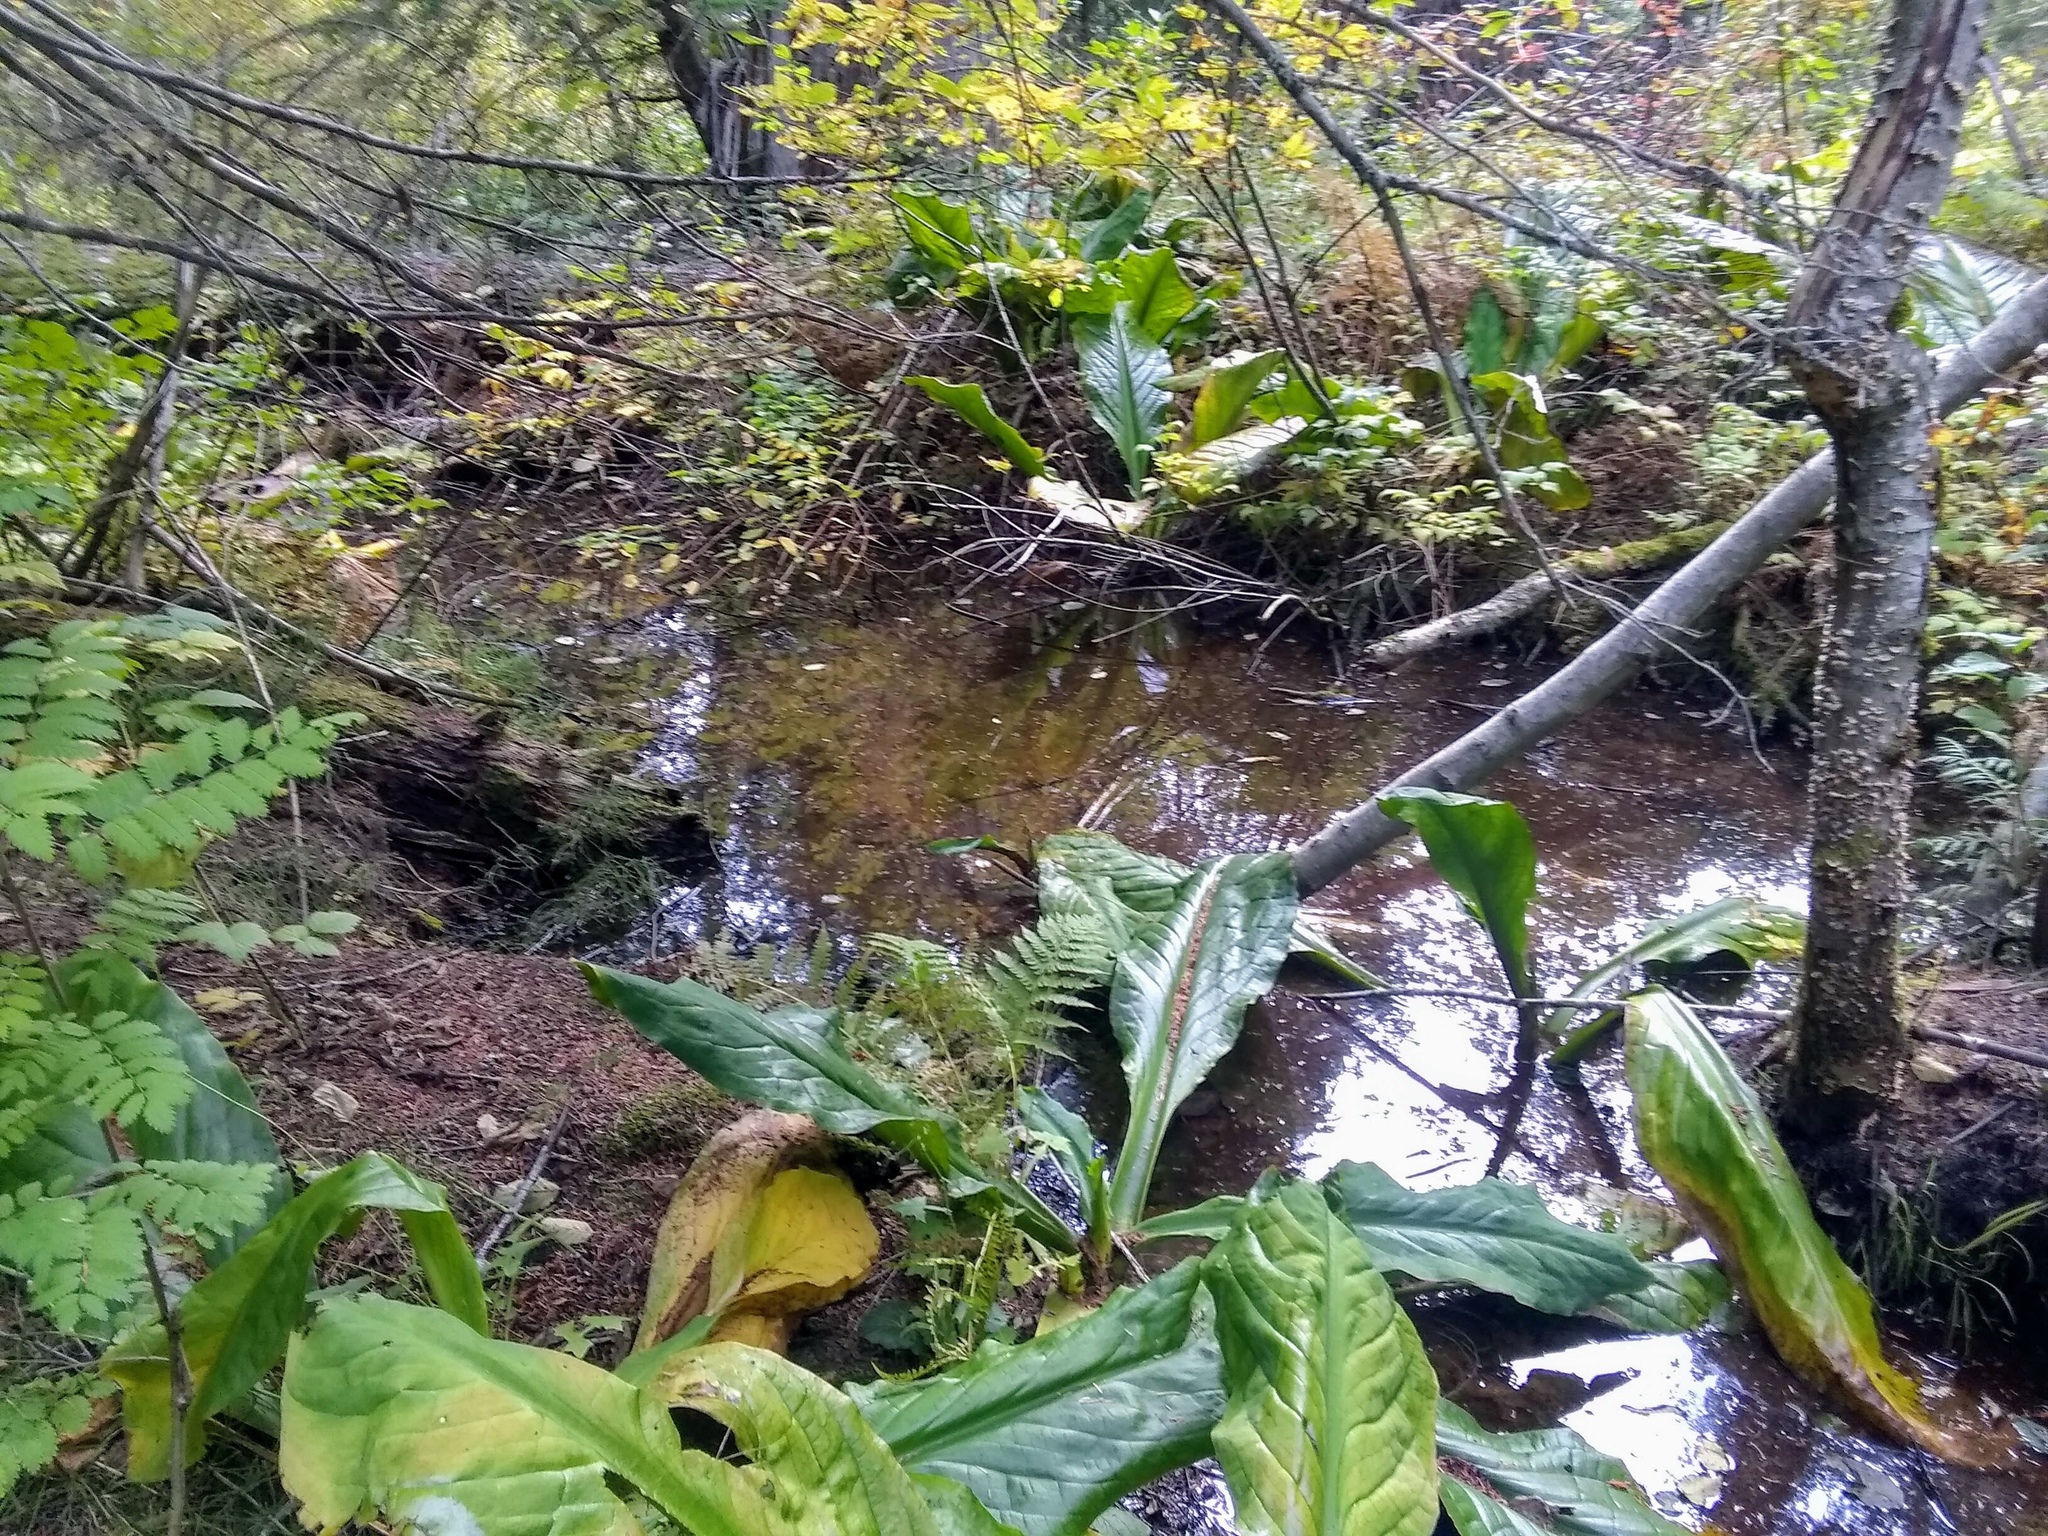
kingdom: Plantae
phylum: Tracheophyta
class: Liliopsida
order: Alismatales
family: Araceae
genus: Lysichiton
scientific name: Lysichiton americanus
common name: American skunk cabbage
